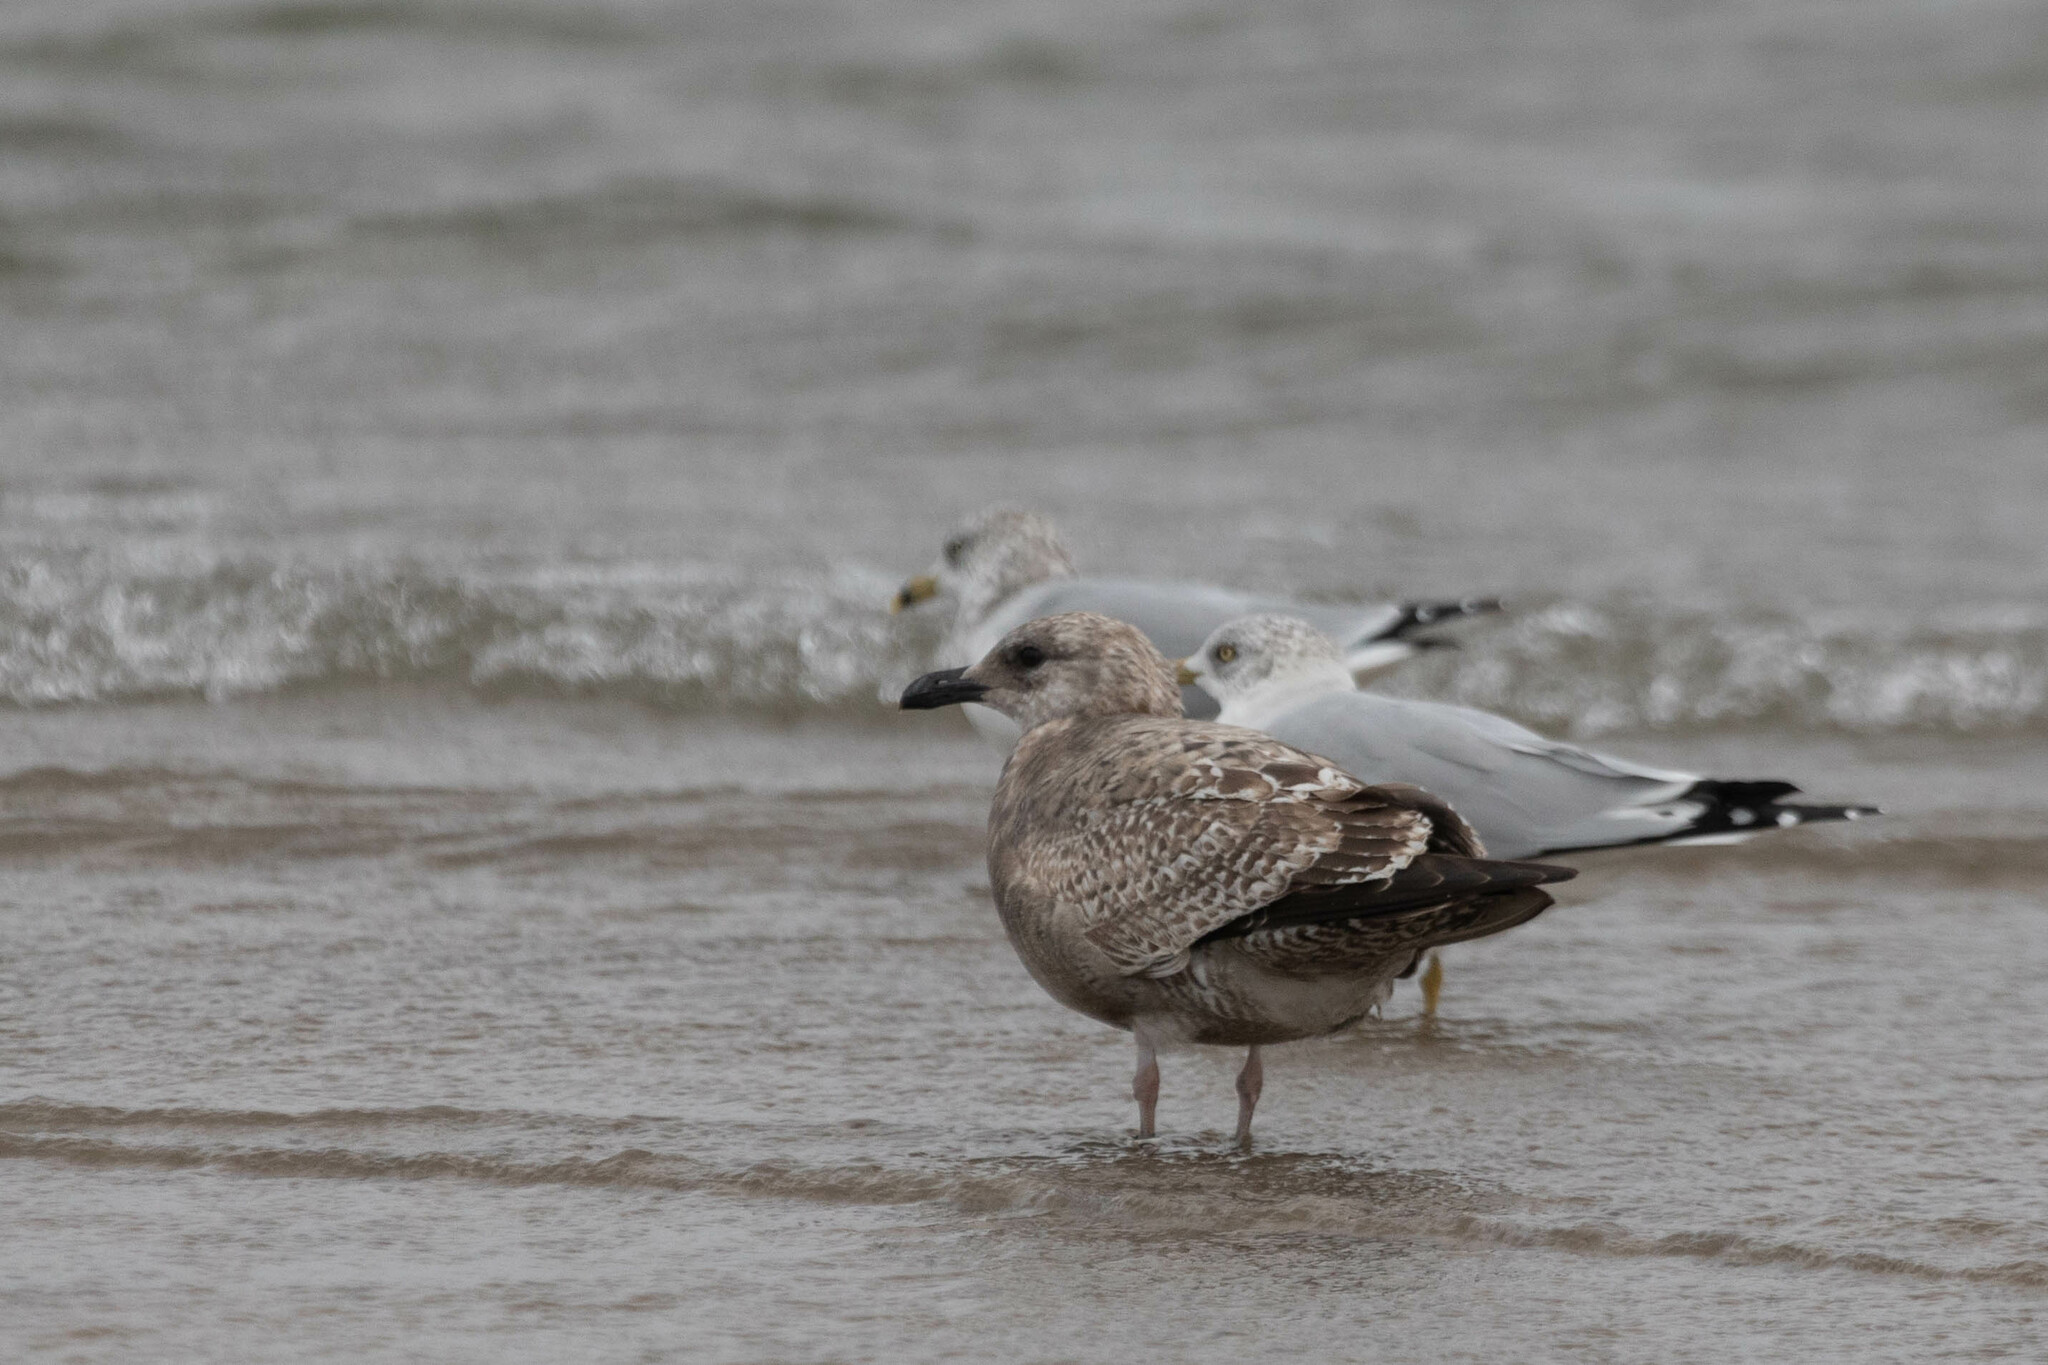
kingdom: Animalia
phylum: Chordata
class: Aves
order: Charadriiformes
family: Laridae
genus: Larus
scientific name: Larus argentatus
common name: Herring gull
